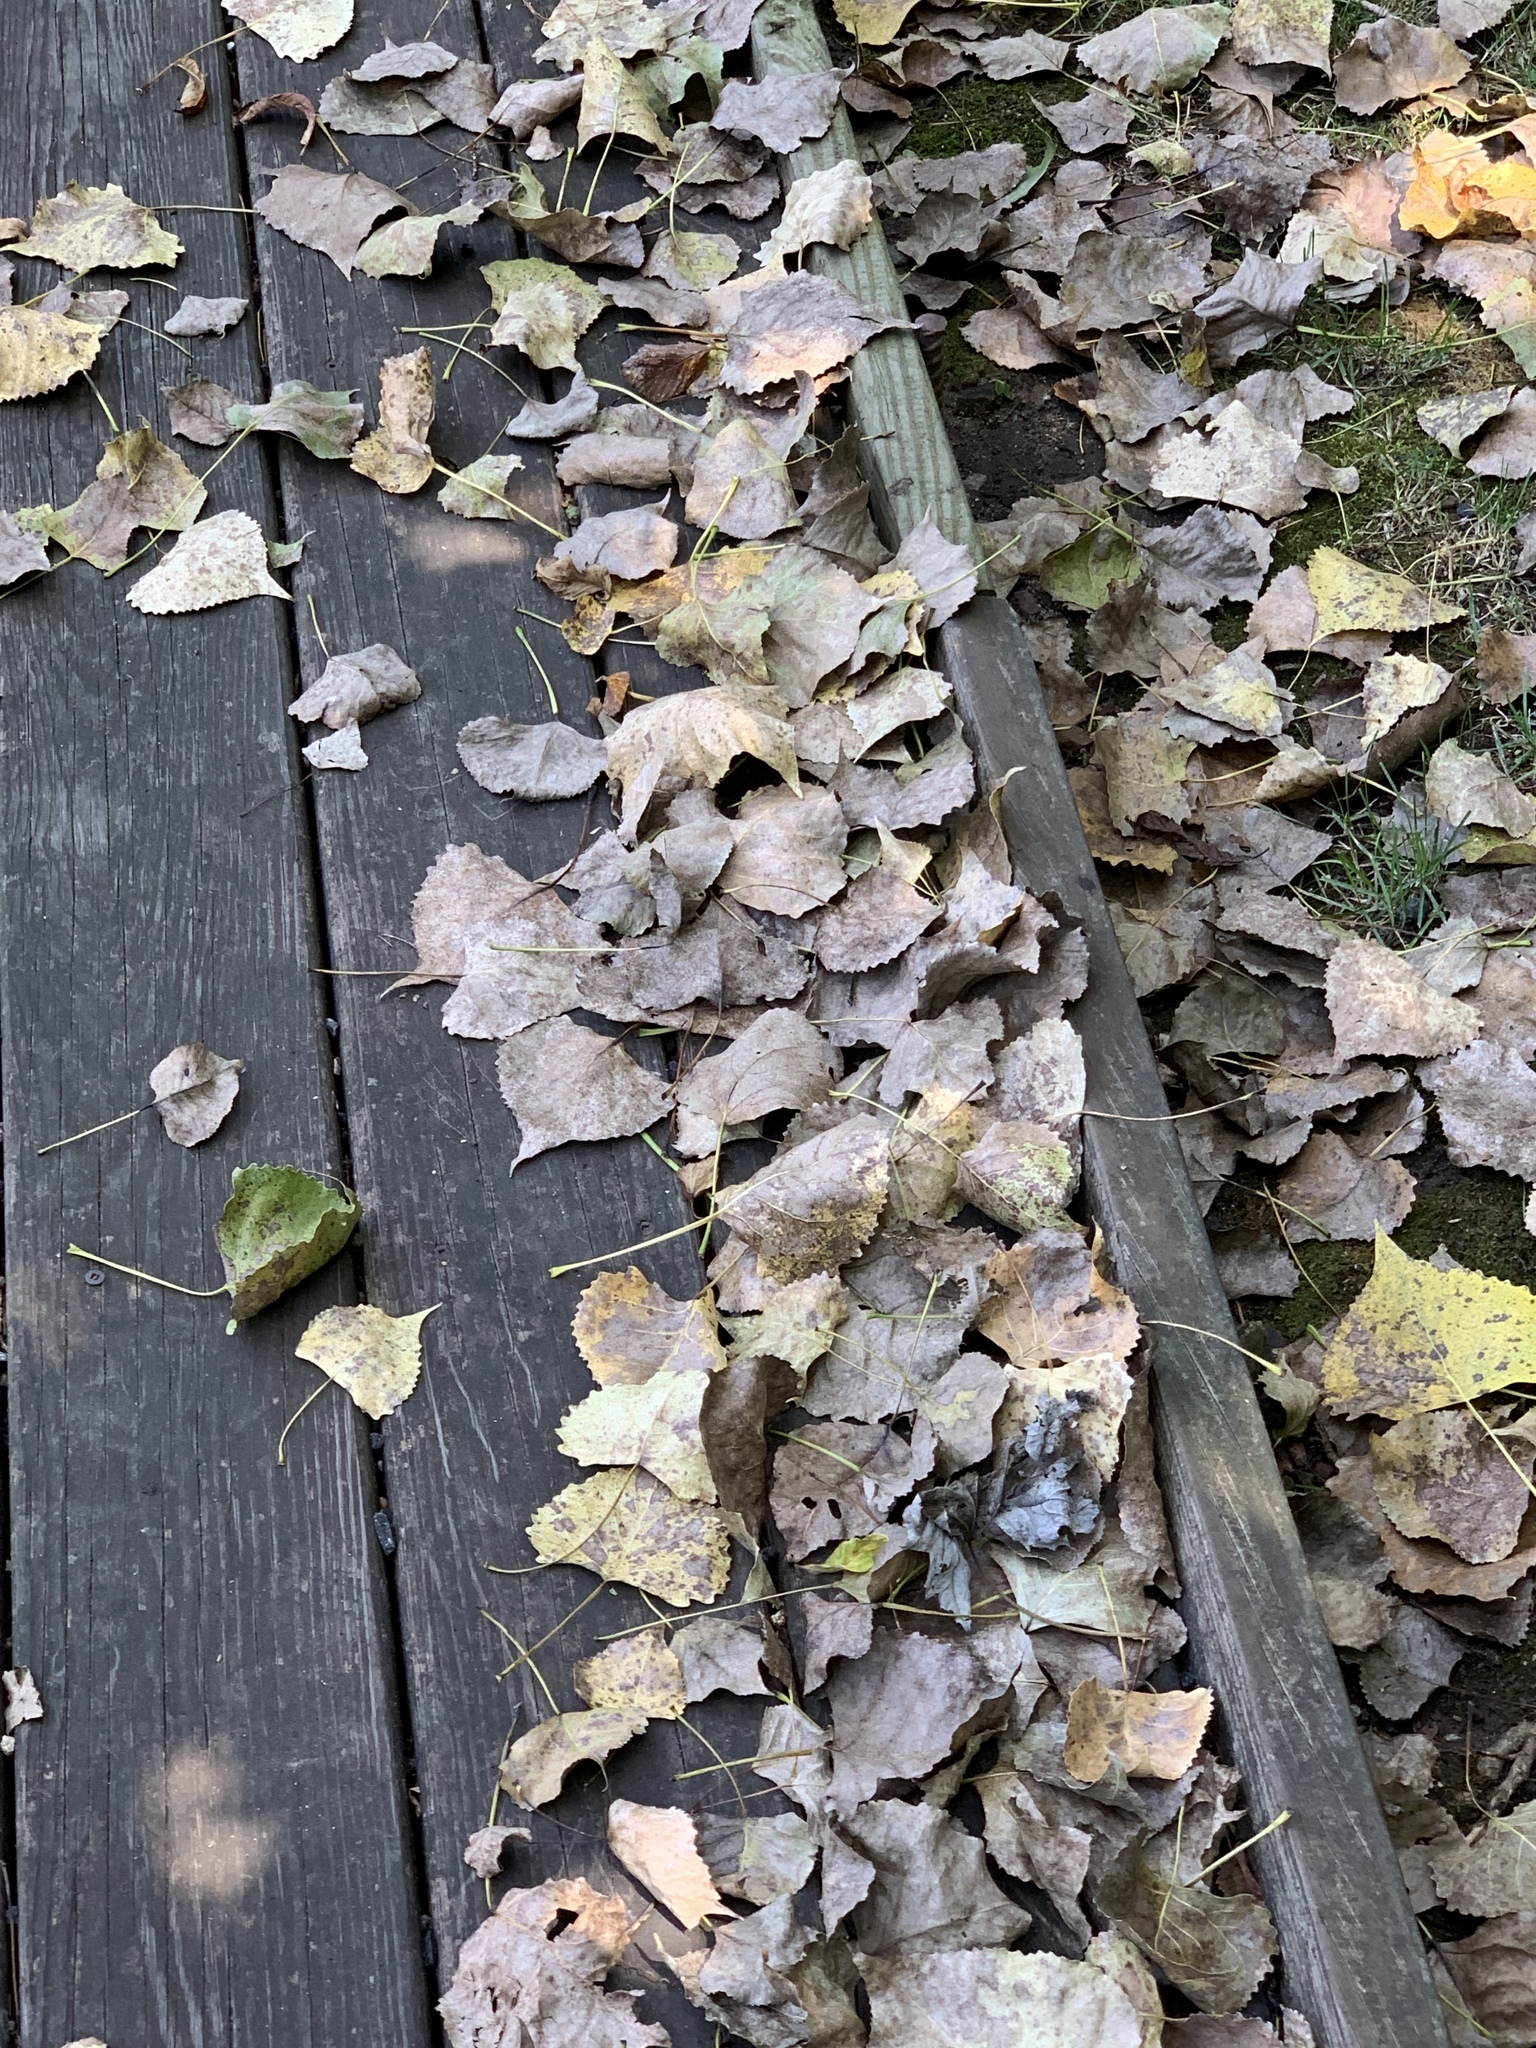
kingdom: Plantae
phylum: Tracheophyta
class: Magnoliopsida
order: Malpighiales
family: Salicaceae
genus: Populus
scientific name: Populus deltoides
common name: Eastern cottonwood
